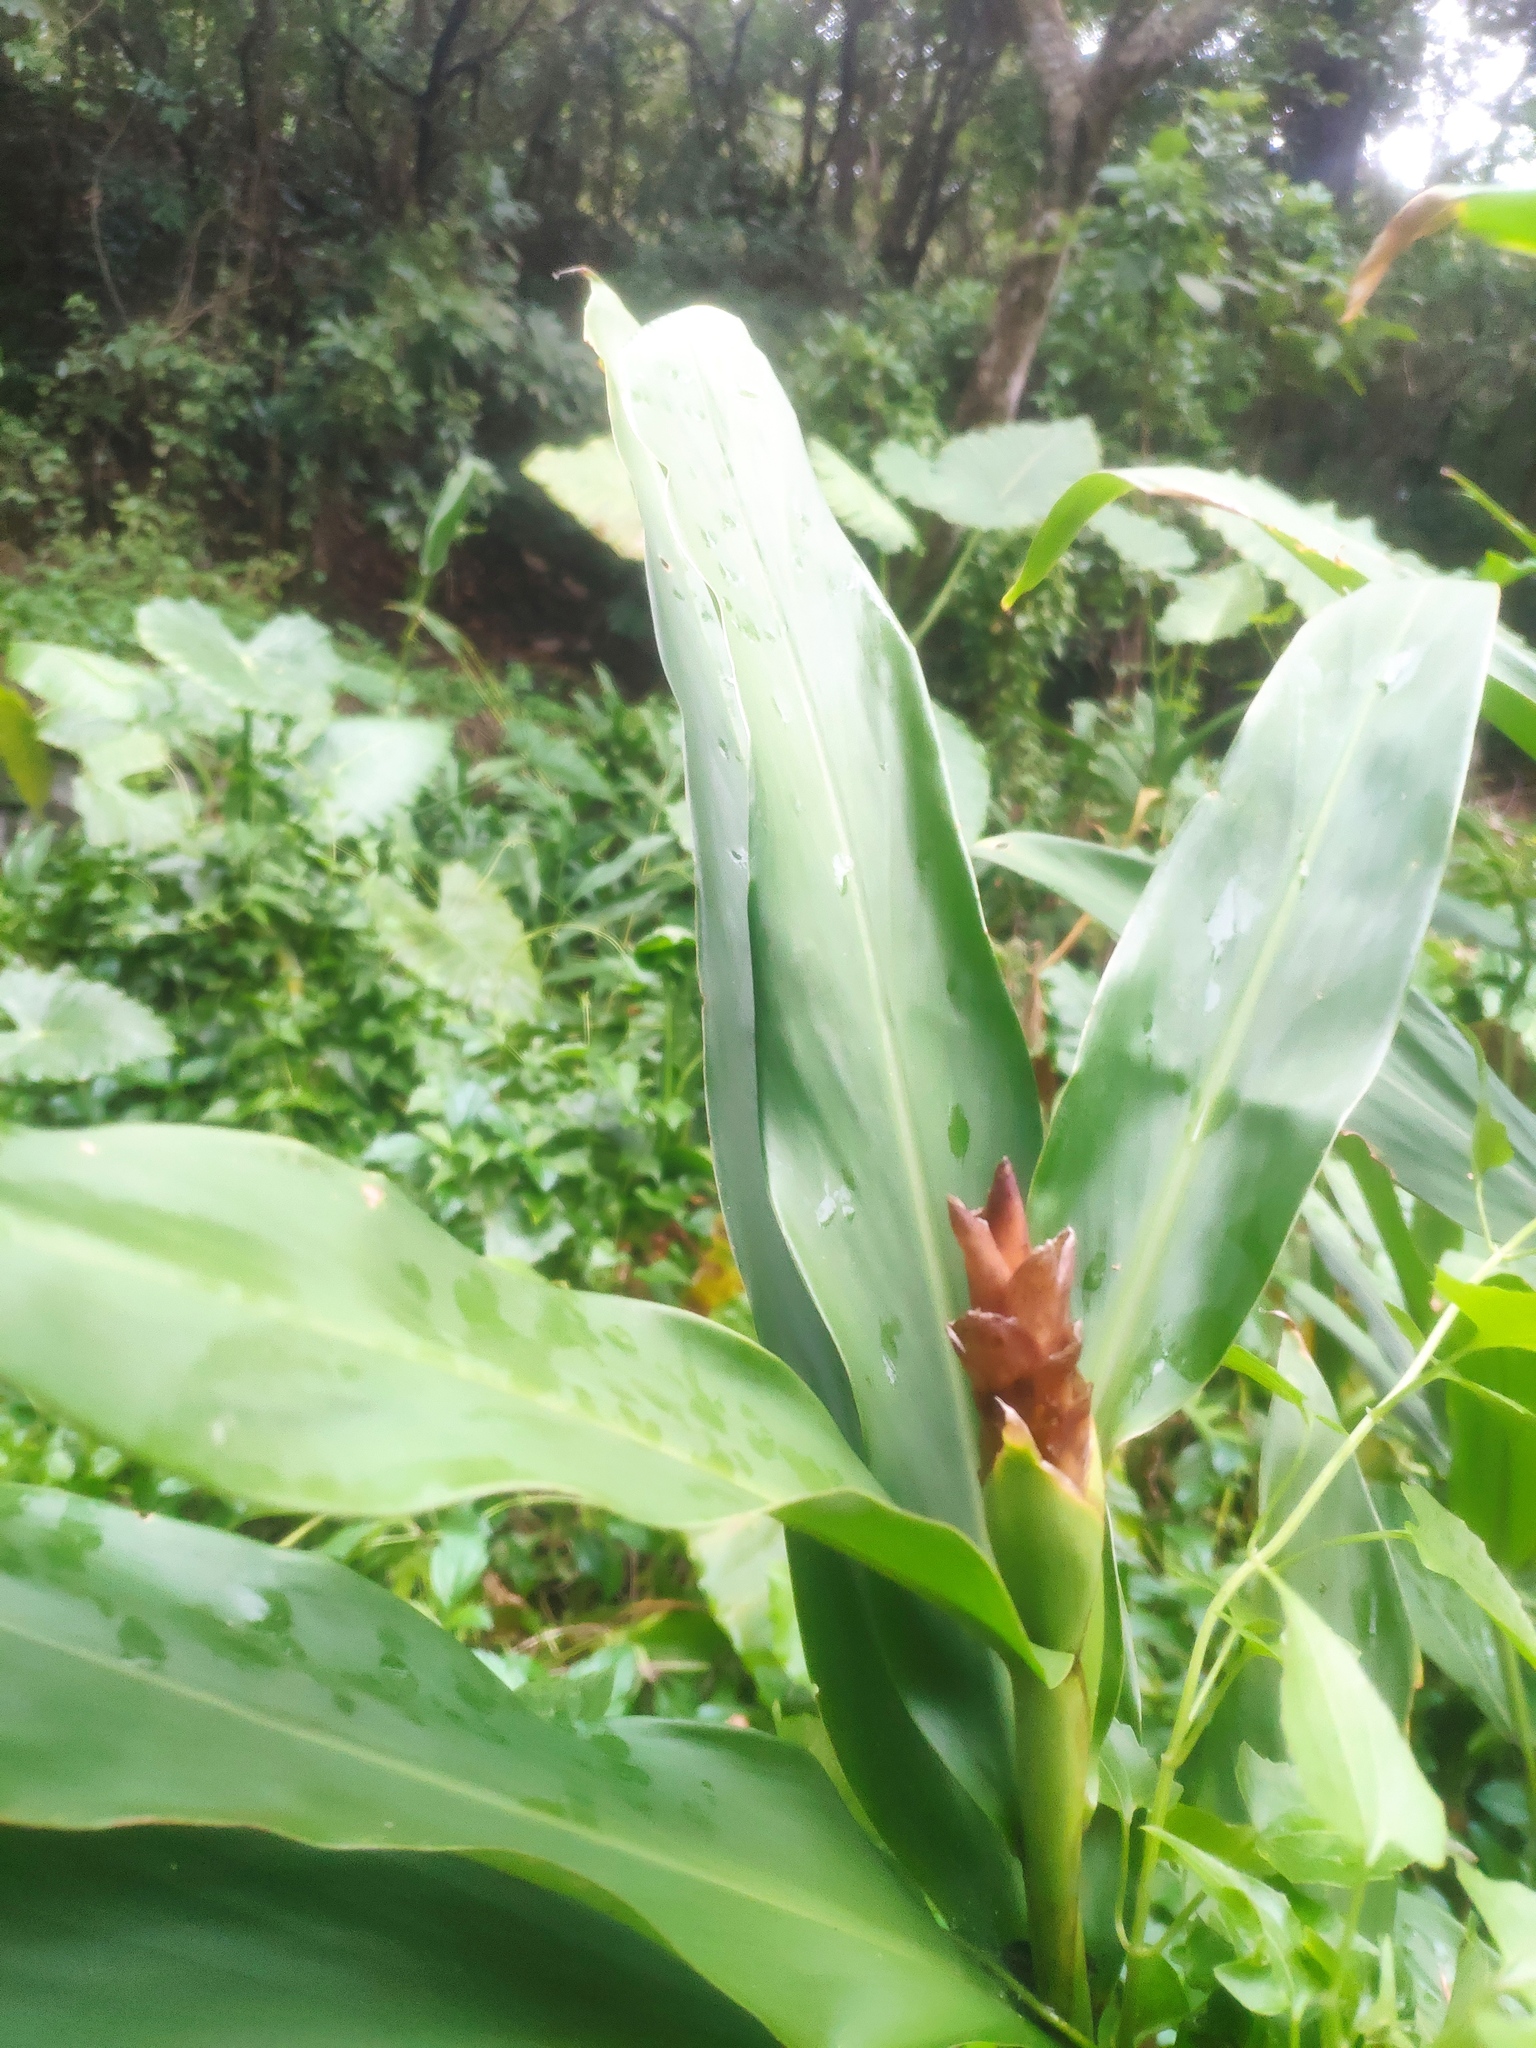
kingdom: Plantae
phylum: Tracheophyta
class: Liliopsida
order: Zingiberales
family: Zingiberaceae
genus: Hedychium
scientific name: Hedychium coronarium
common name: White garland-lily
